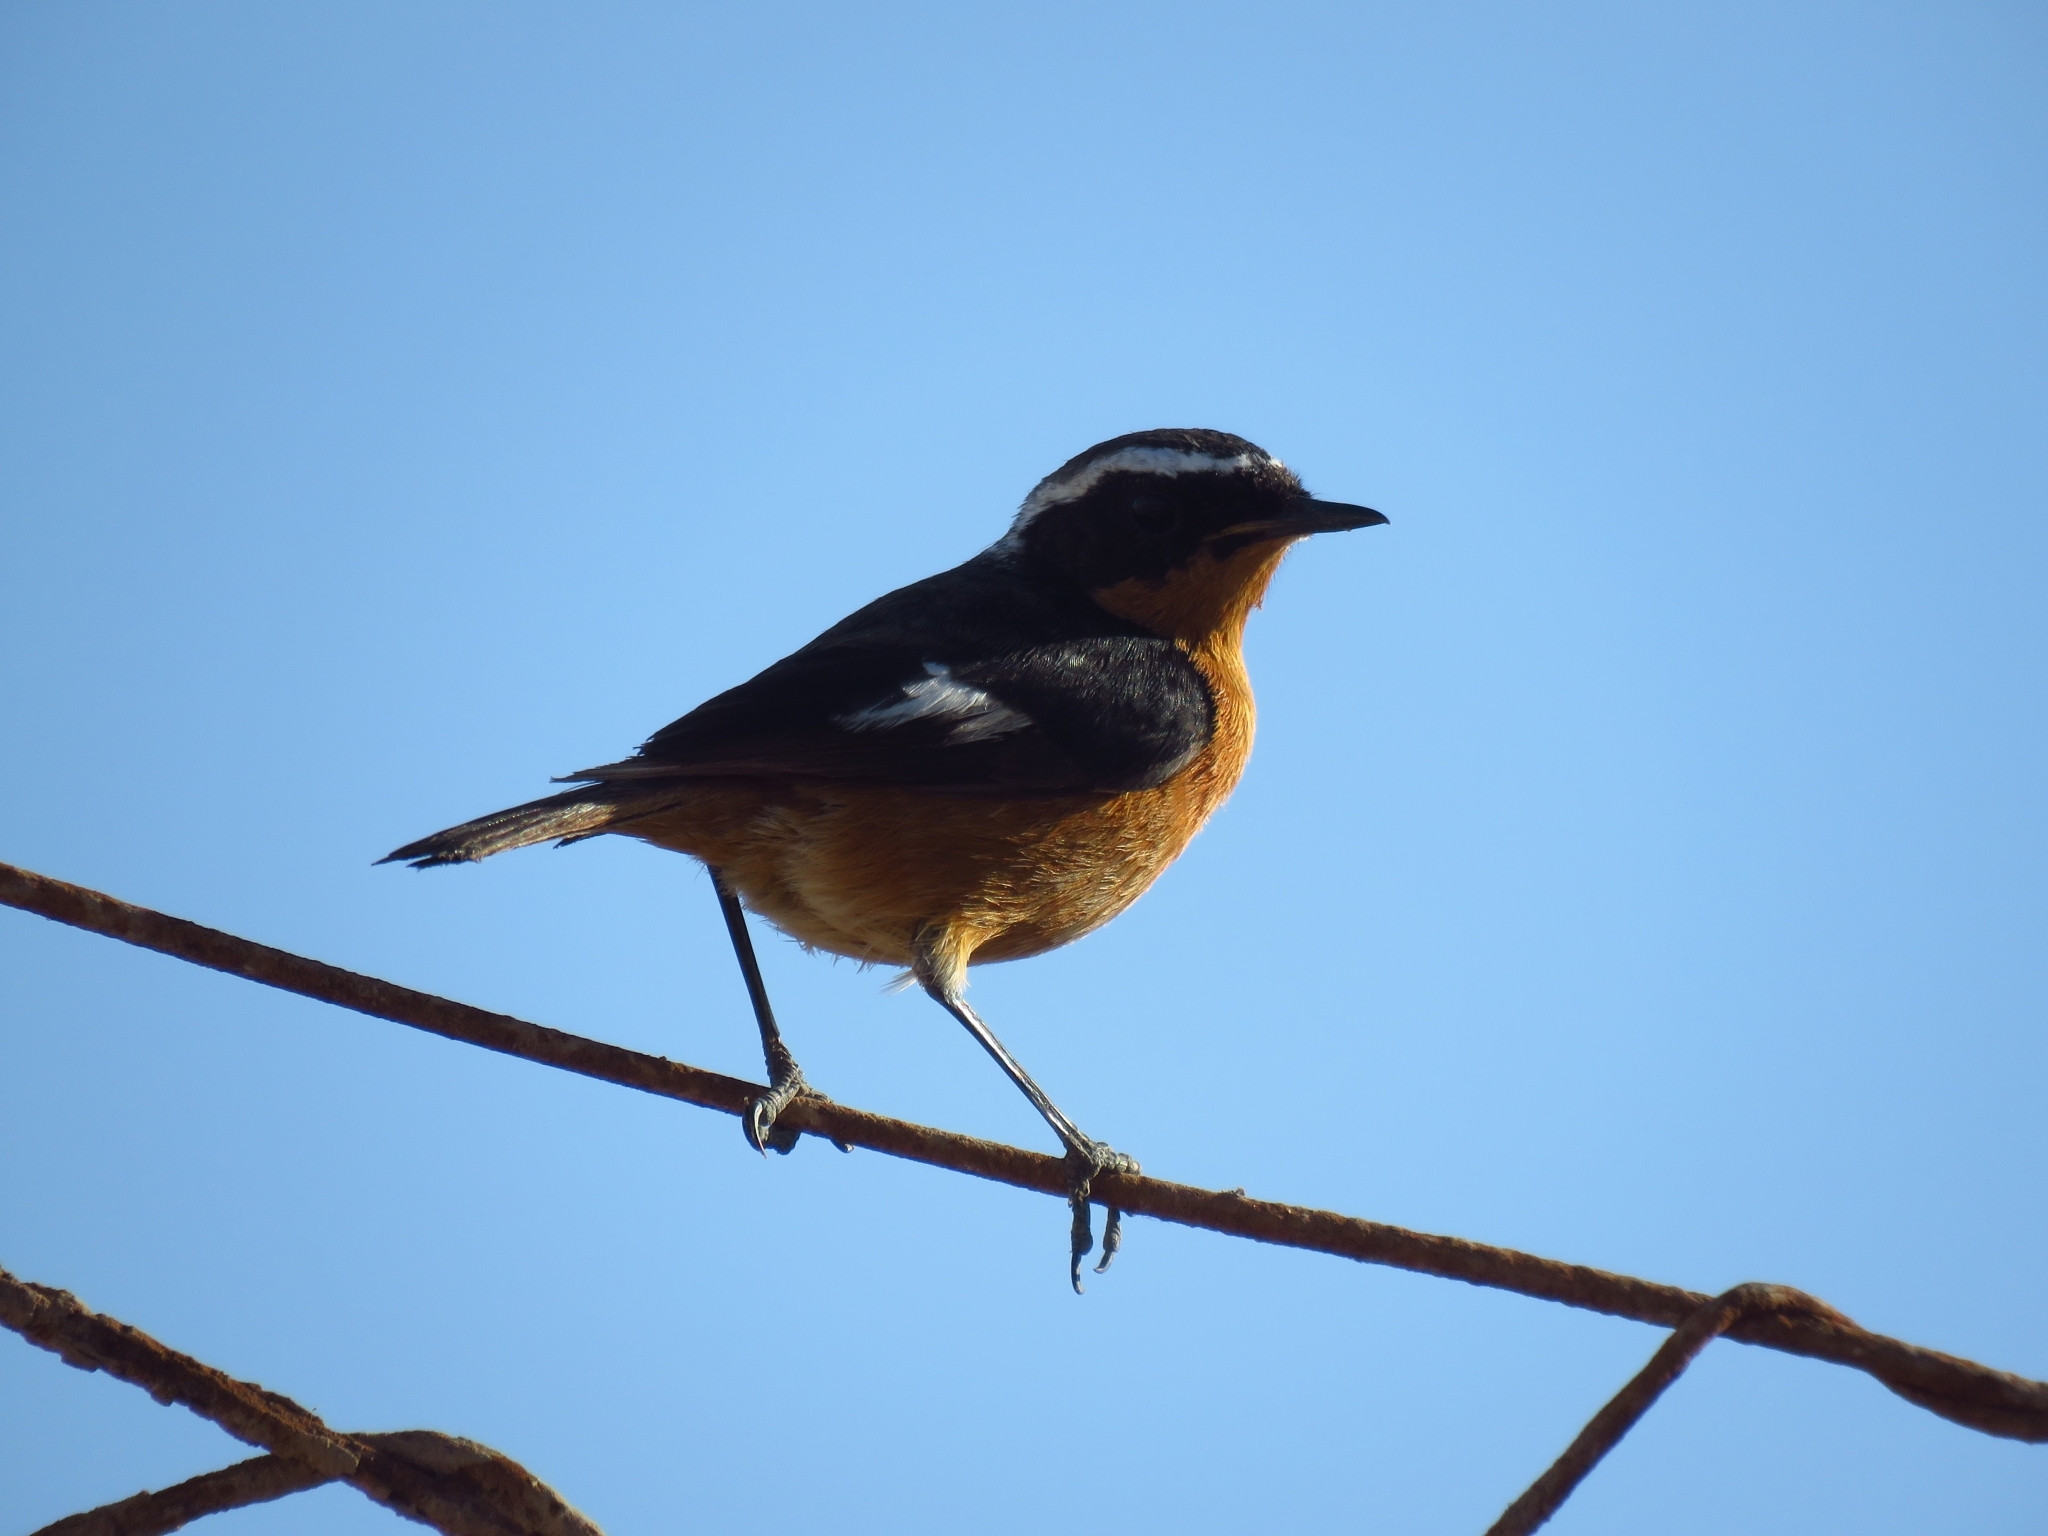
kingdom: Animalia
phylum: Chordata
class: Aves
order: Passeriformes
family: Muscicapidae
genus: Phoenicurus
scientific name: Phoenicurus moussieri
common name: Moussier's redstart
